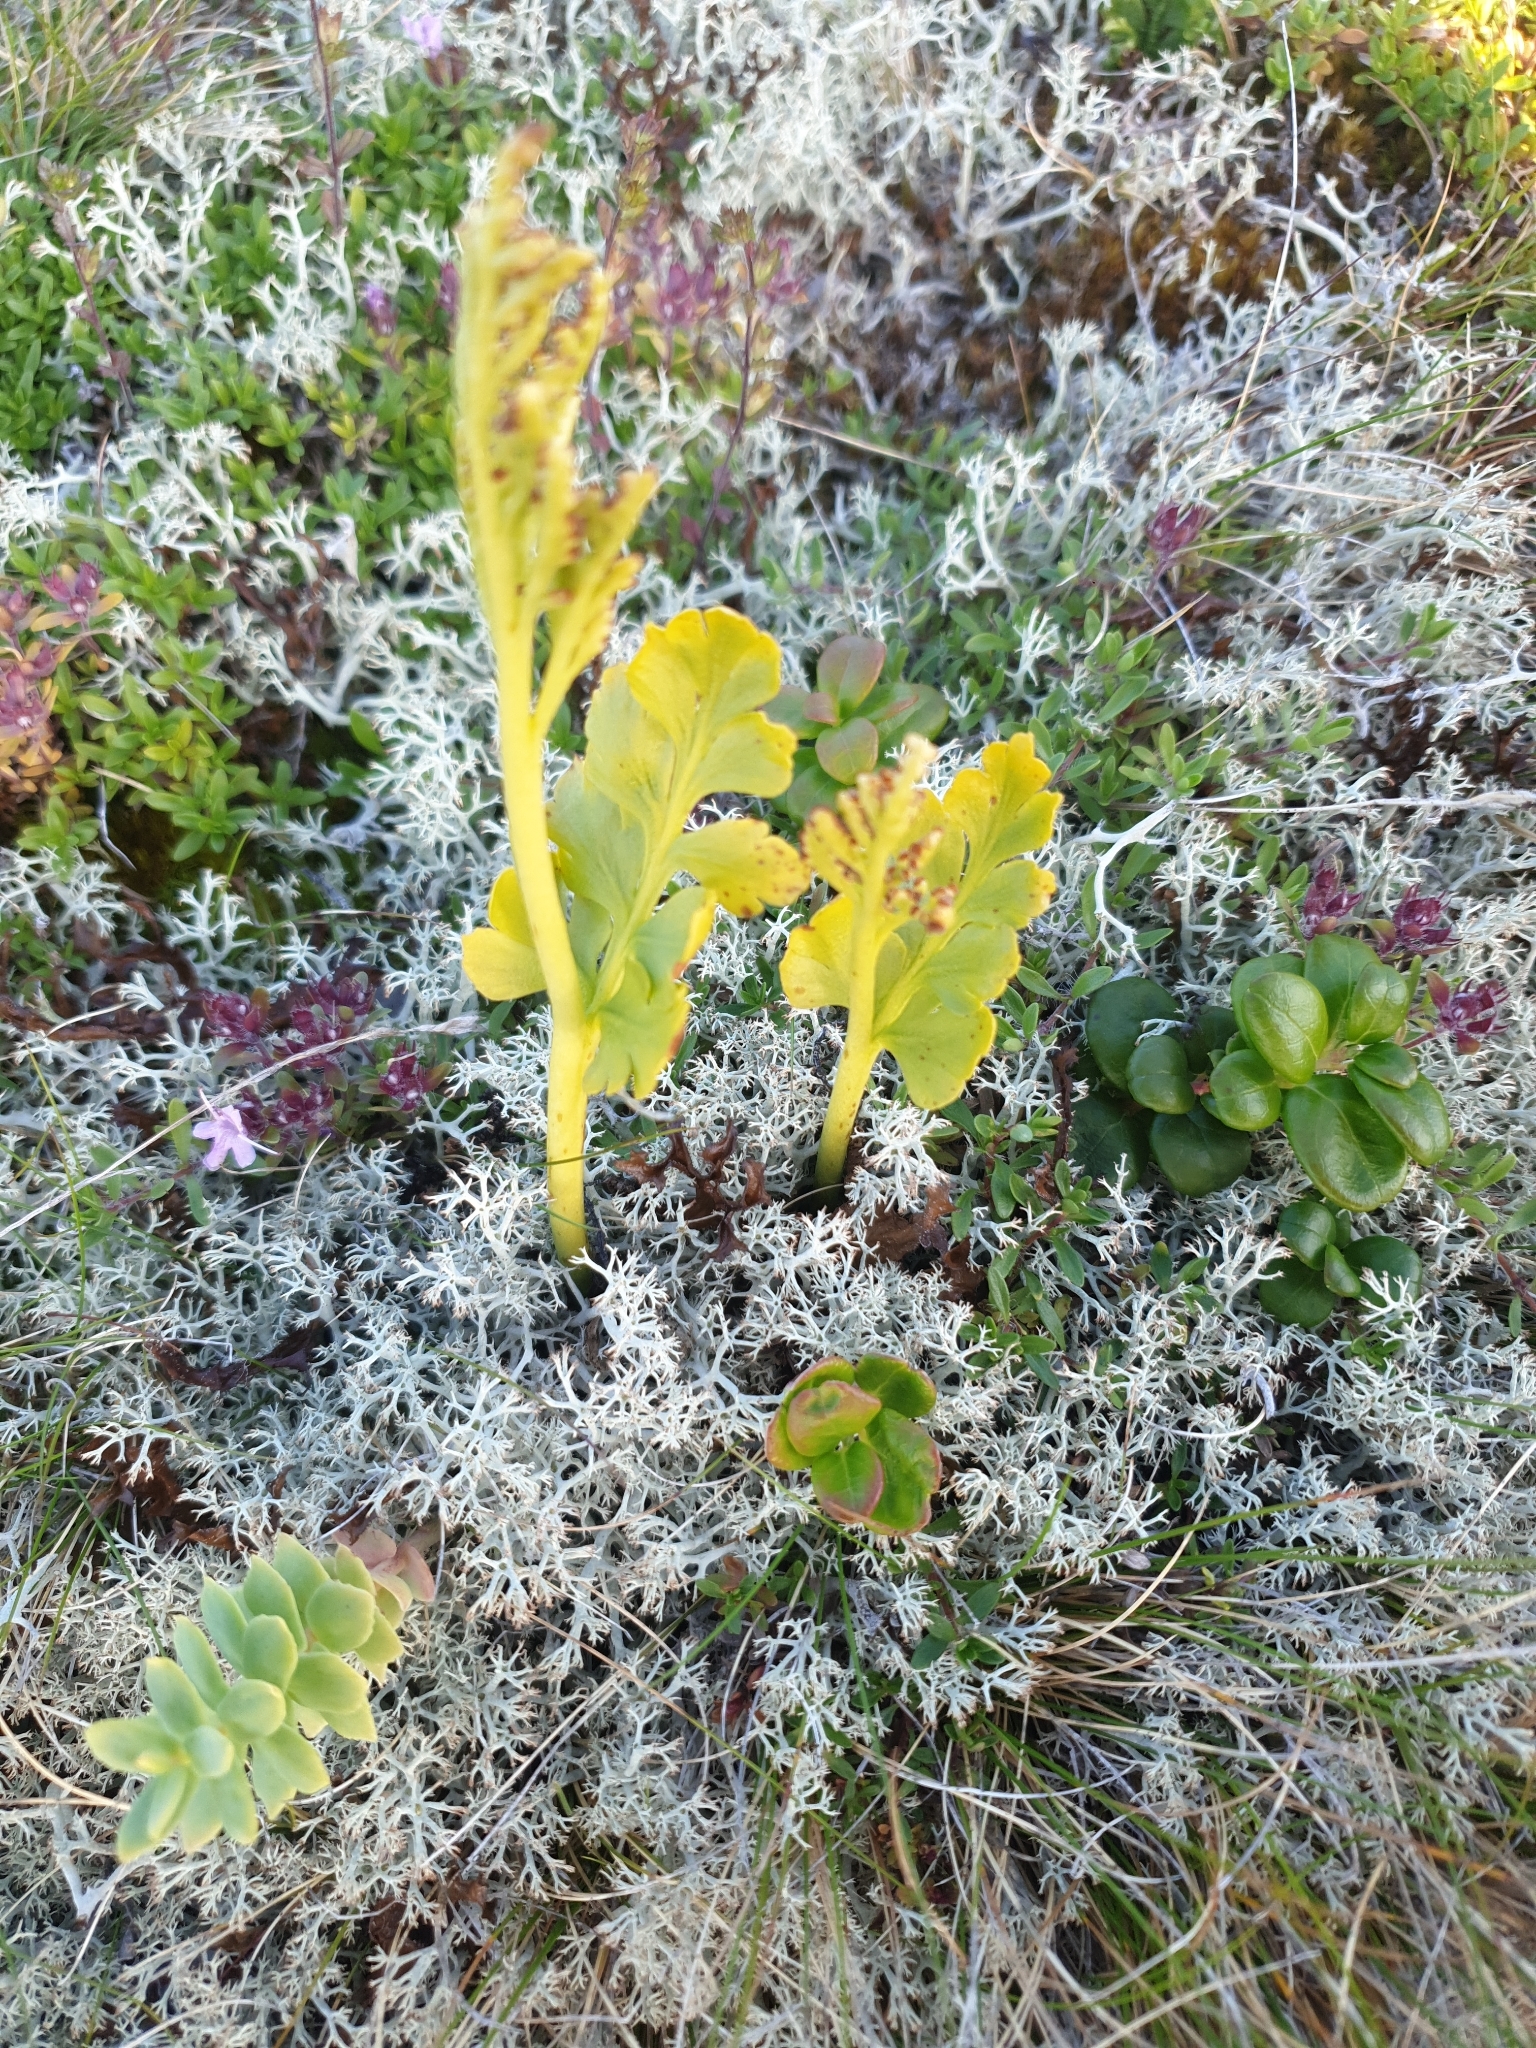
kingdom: Plantae
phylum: Tracheophyta
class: Polypodiopsida
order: Ophioglossales
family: Ophioglossaceae
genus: Botrychium
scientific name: Botrychium lunaria
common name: Moonwort
